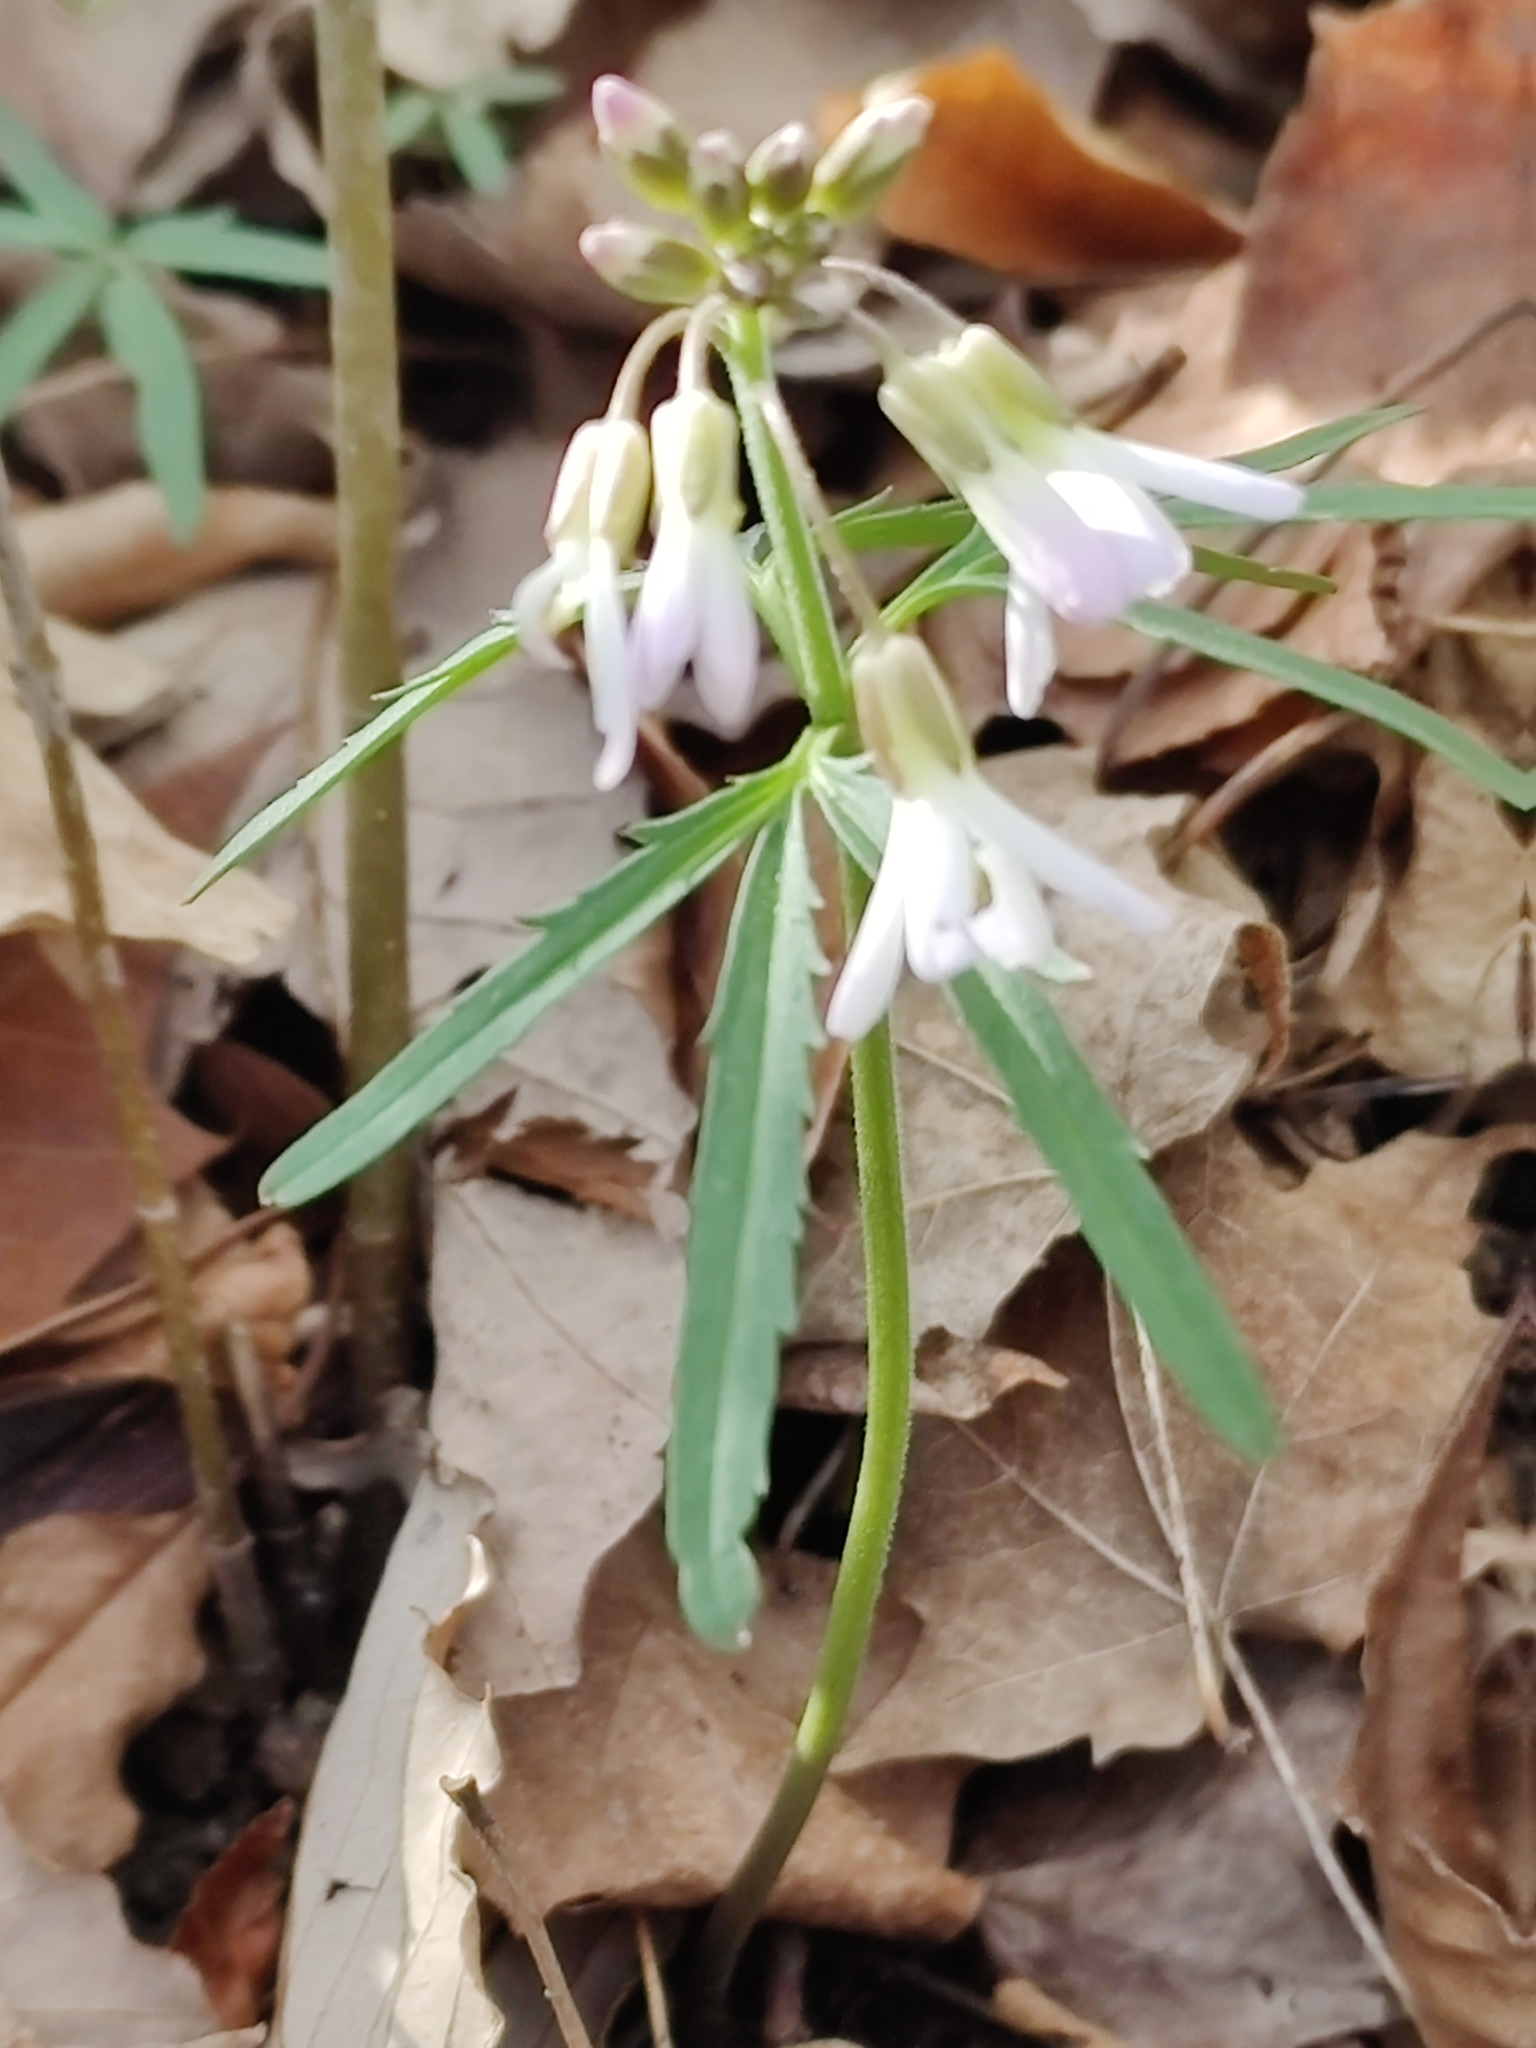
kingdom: Plantae
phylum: Tracheophyta
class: Magnoliopsida
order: Brassicales
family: Brassicaceae
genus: Cardamine
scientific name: Cardamine concatenata
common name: Cut-leaf toothcup
